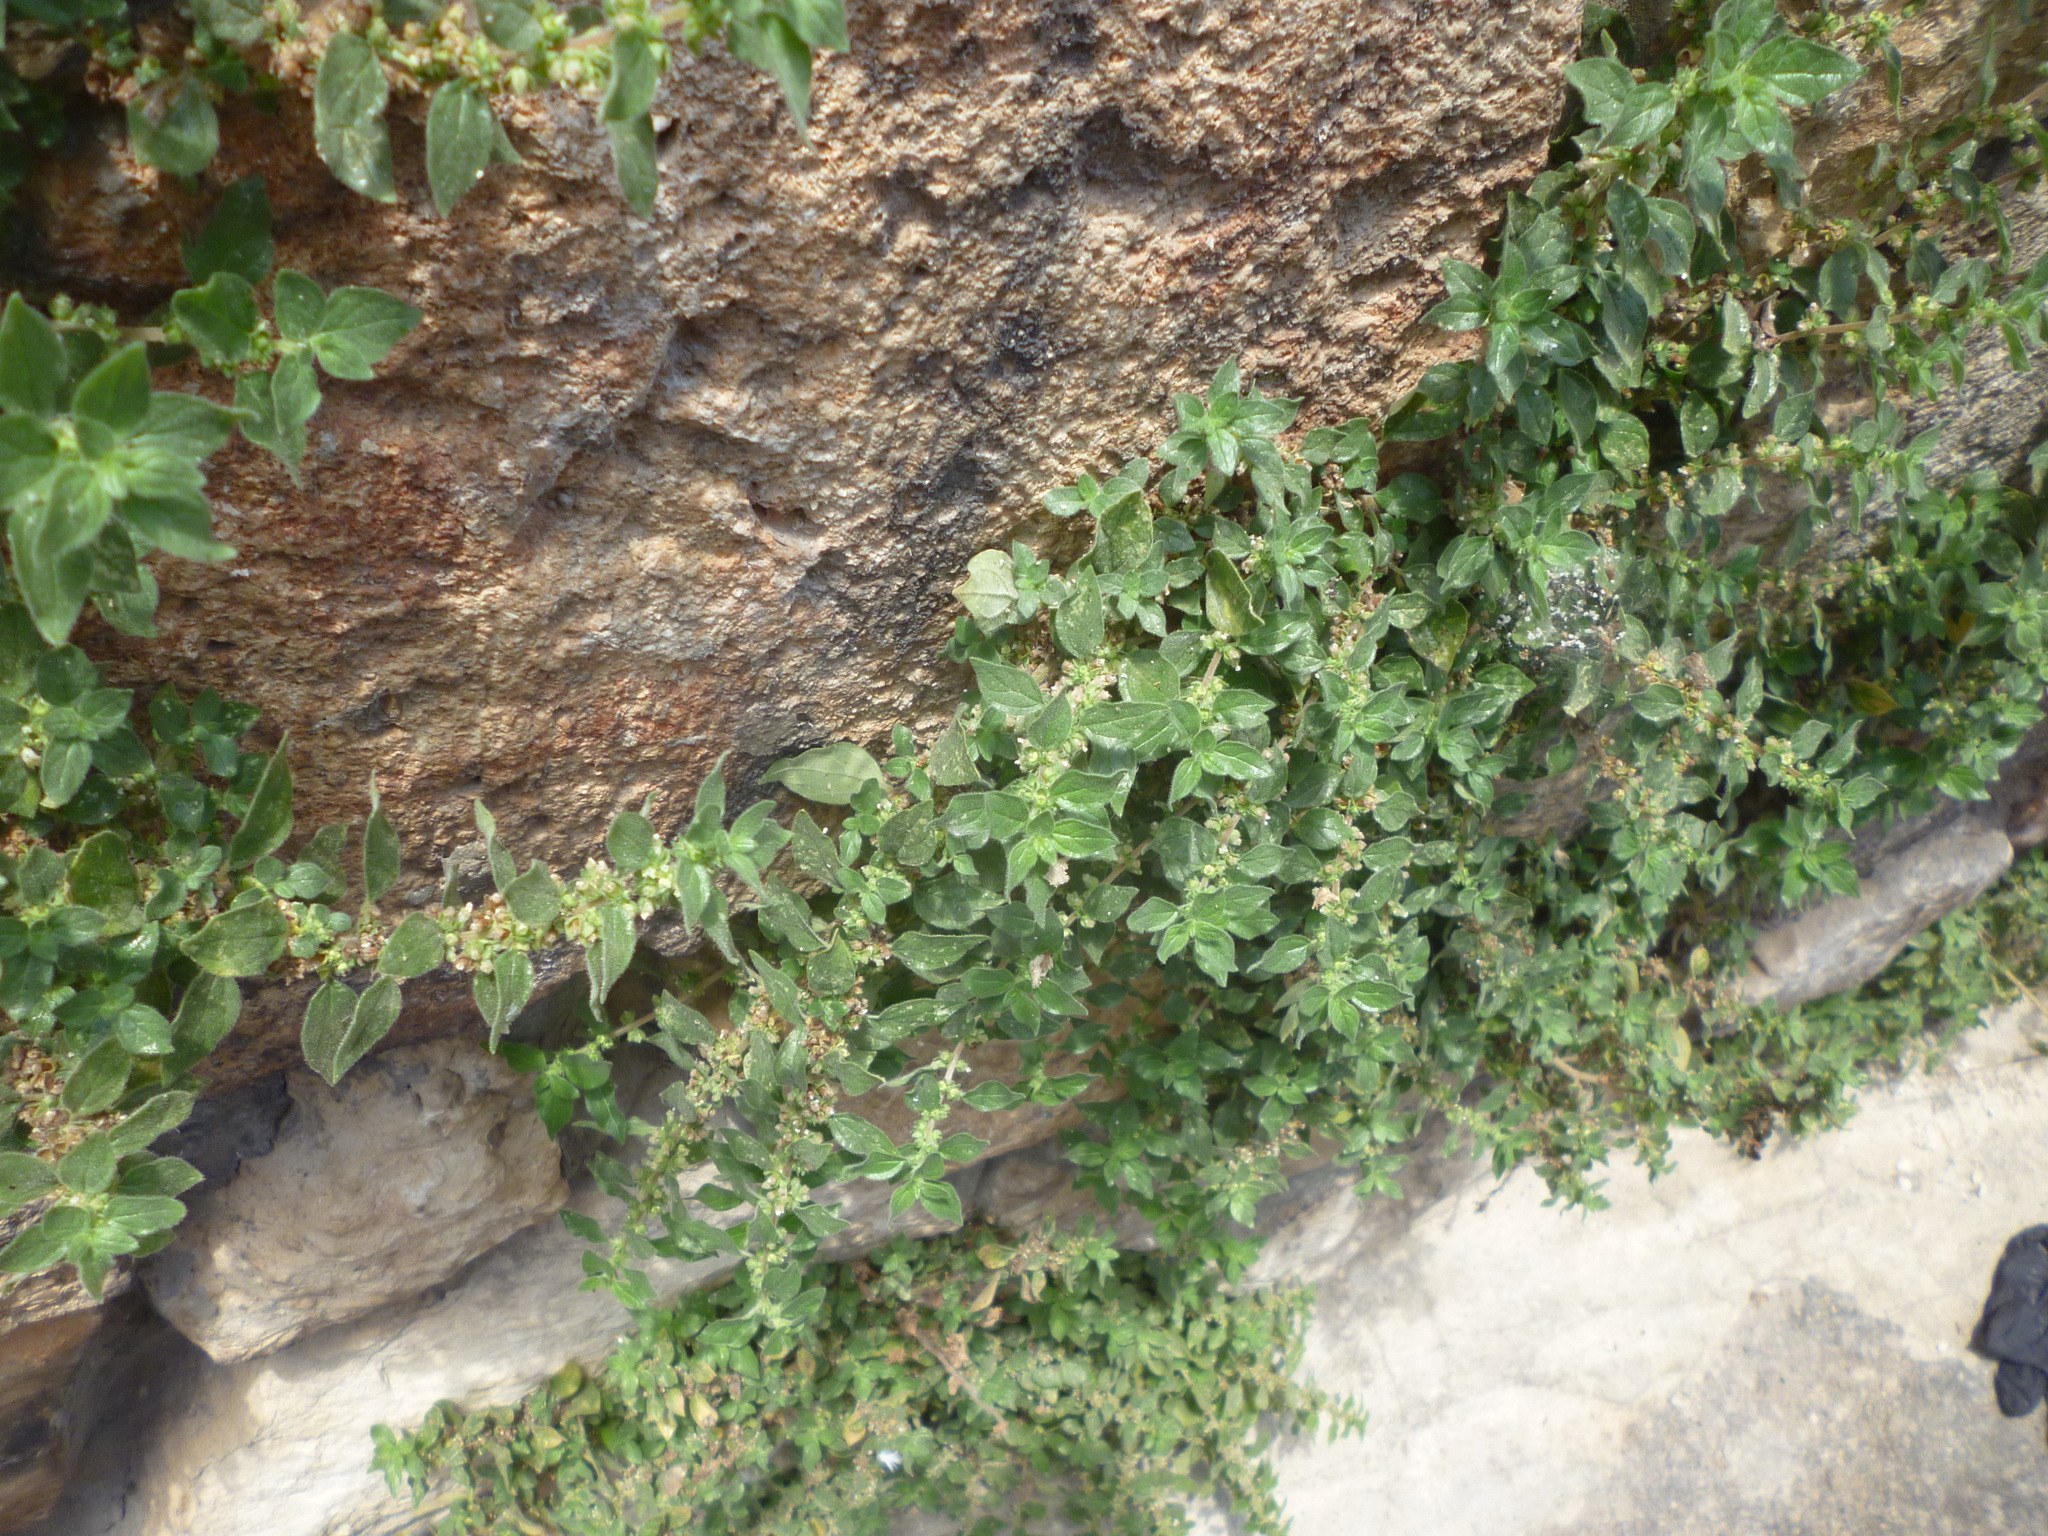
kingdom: Plantae
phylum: Tracheophyta
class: Magnoliopsida
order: Rosales
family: Urticaceae
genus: Parietaria
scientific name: Parietaria judaica
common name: Pellitory-of-the-wall
